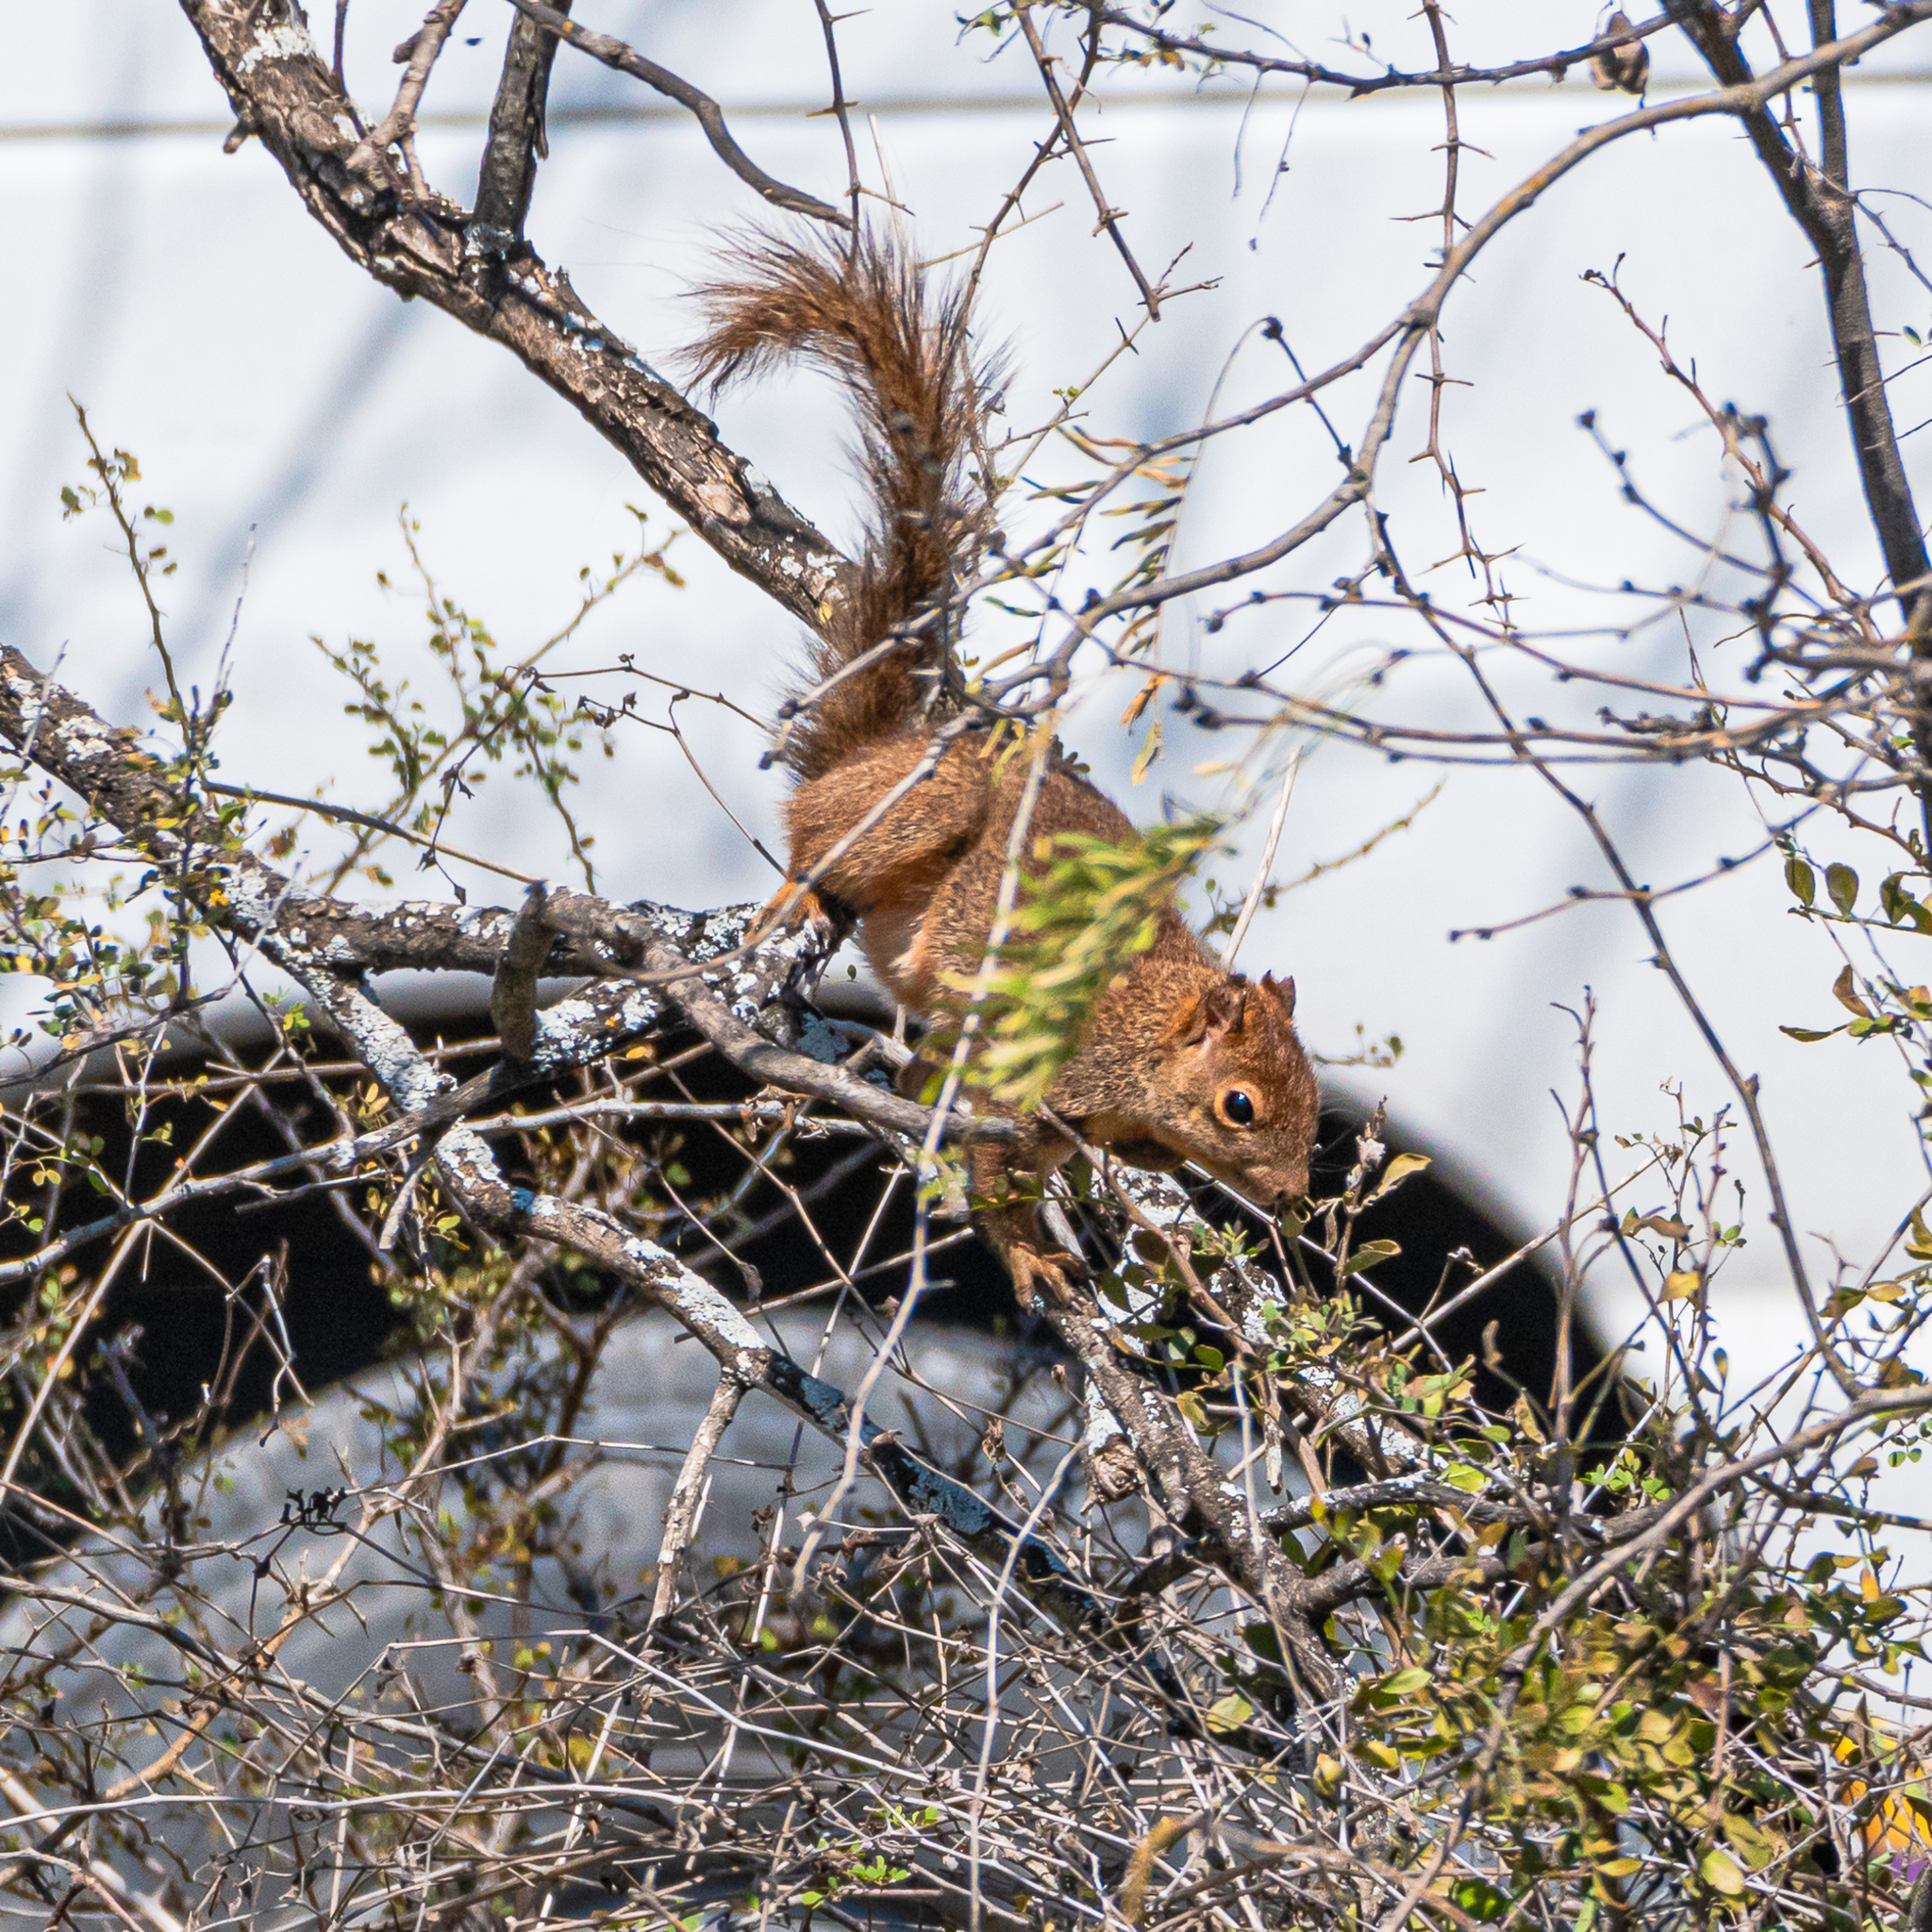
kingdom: Animalia
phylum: Chordata
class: Mammalia
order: Rodentia
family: Sciuridae
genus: Sciurus
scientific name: Sciurus niger
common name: Fox squirrel
